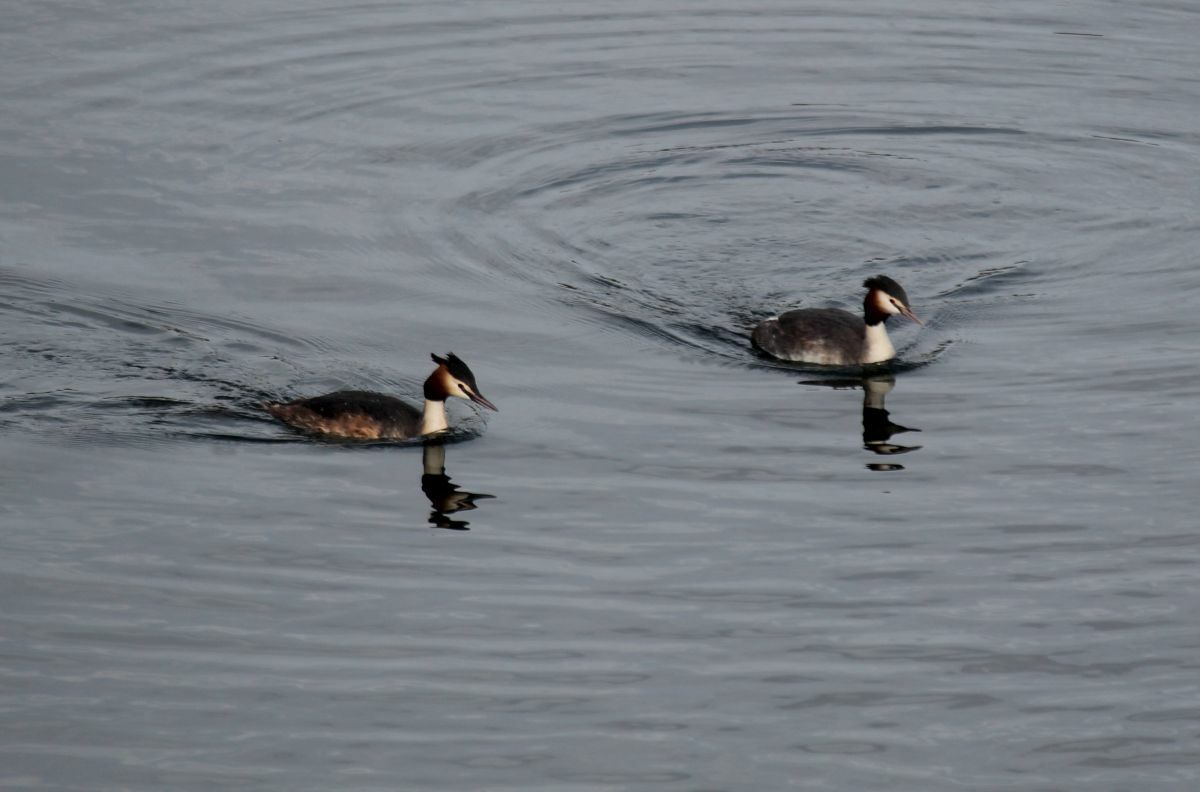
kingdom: Animalia
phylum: Chordata
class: Aves
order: Podicipediformes
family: Podicipedidae
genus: Podiceps
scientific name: Podiceps cristatus
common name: Great crested grebe
